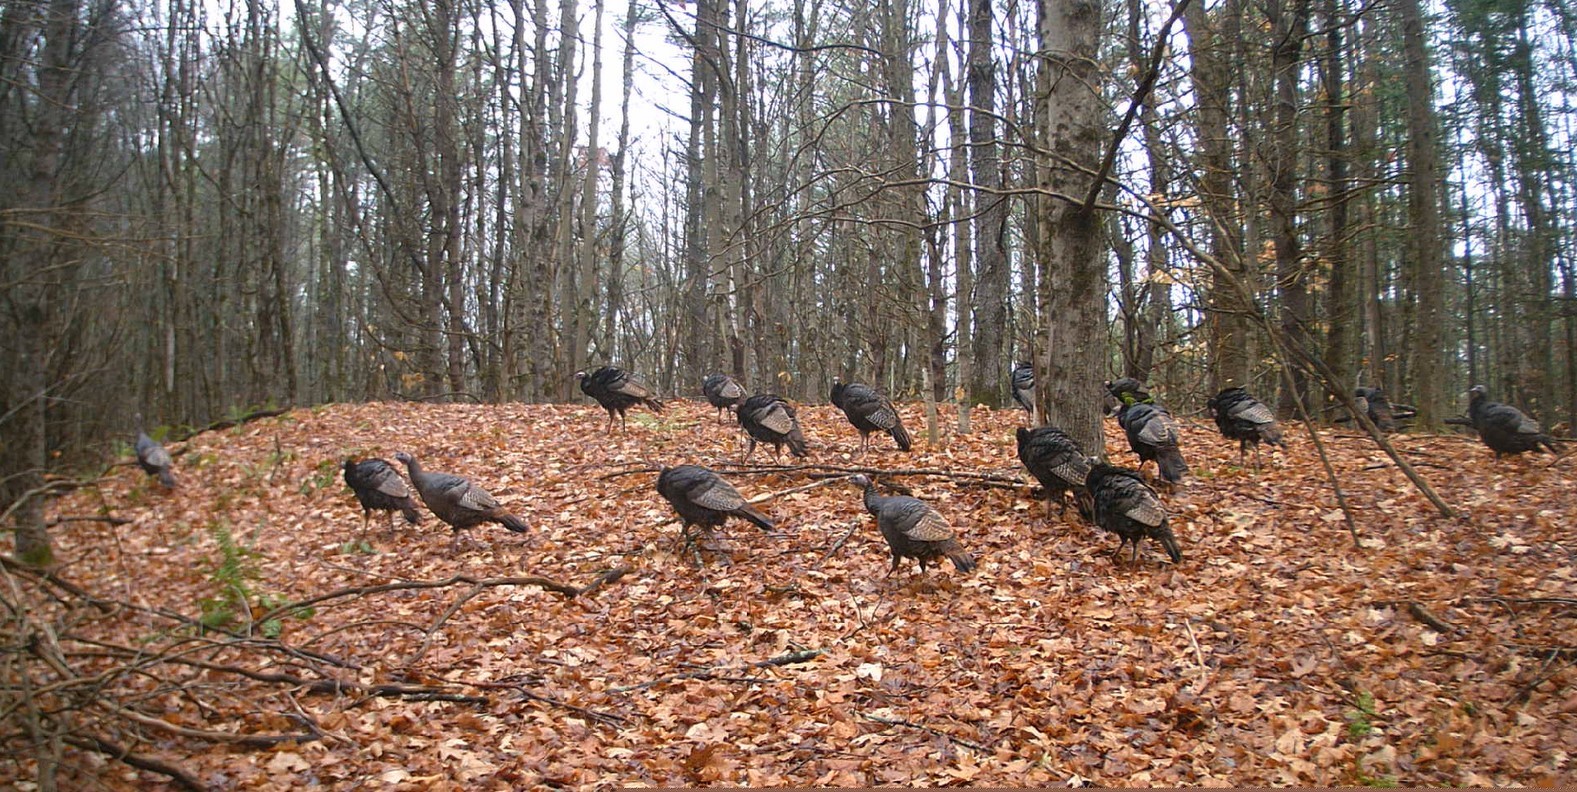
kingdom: Animalia
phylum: Chordata
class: Aves
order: Galliformes
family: Phasianidae
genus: Meleagris
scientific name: Meleagris gallopavo
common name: Wild turkey
